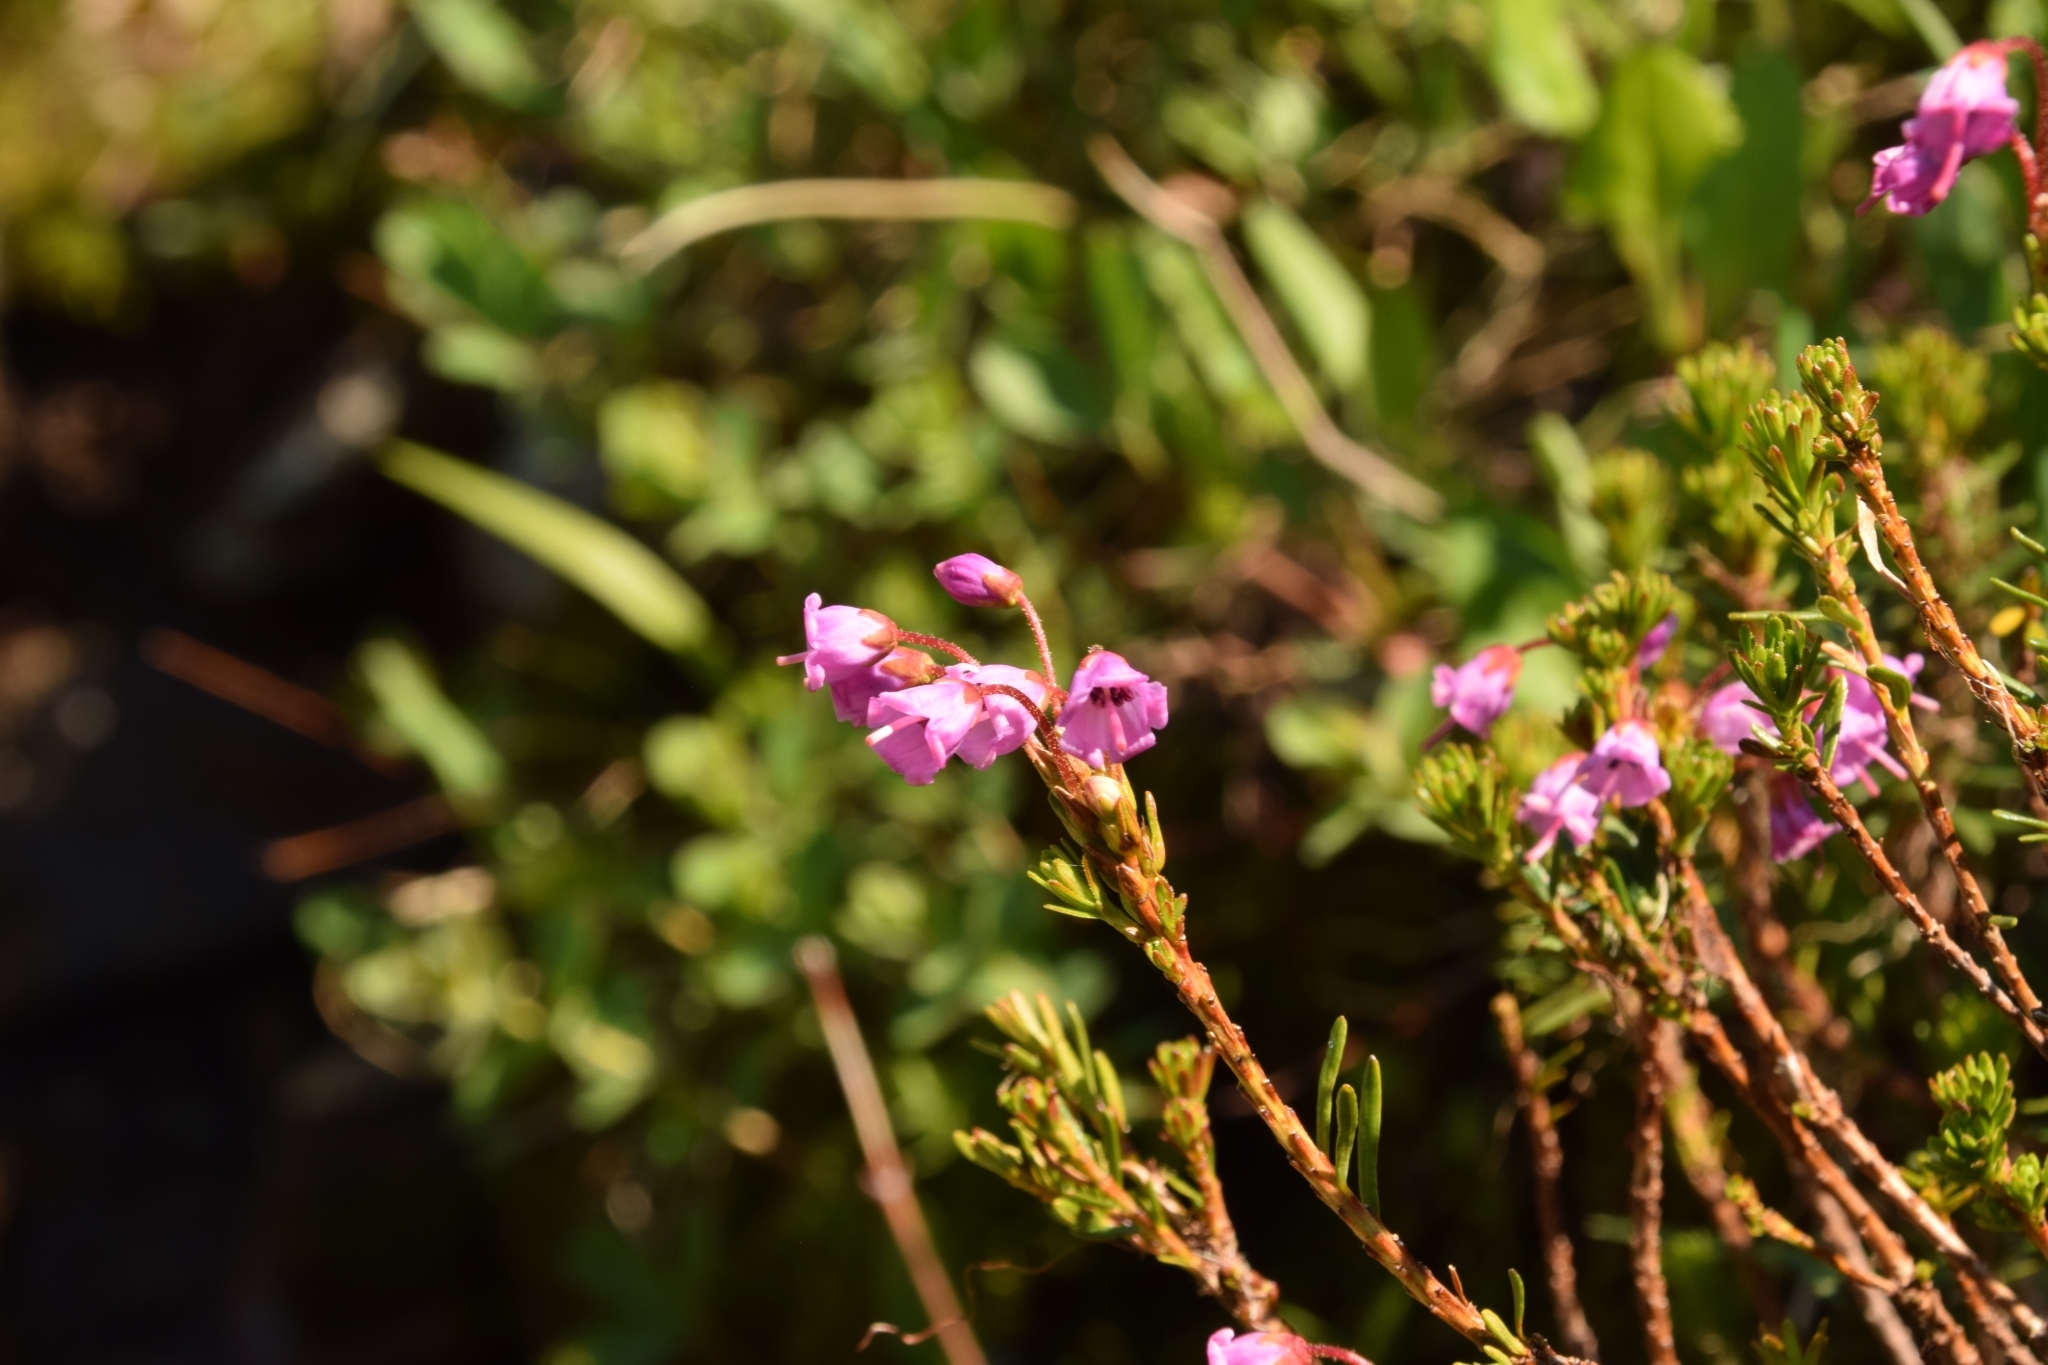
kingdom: Plantae
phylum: Tracheophyta
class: Magnoliopsida
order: Ericales
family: Ericaceae
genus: Phyllodoce
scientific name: Phyllodoce empetriformis
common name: Pink mountain heather
